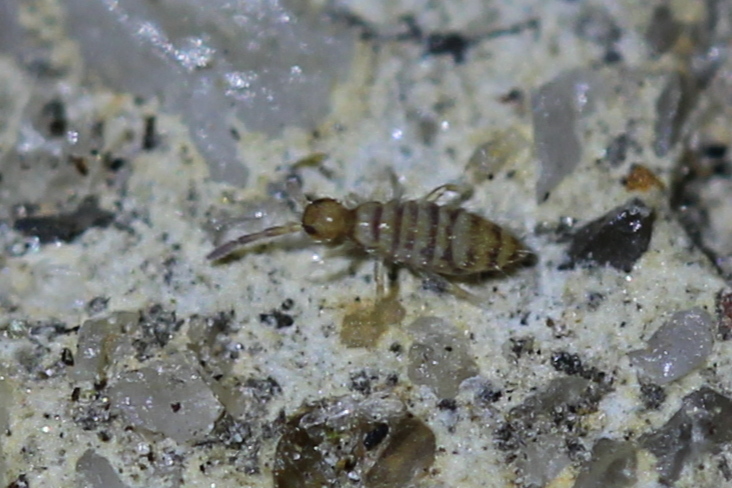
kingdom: Animalia
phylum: Arthropoda
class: Collembola
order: Entomobryomorpha
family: Entomobryidae
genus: Entomobrya
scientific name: Entomobrya atrocincta
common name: Springtail
